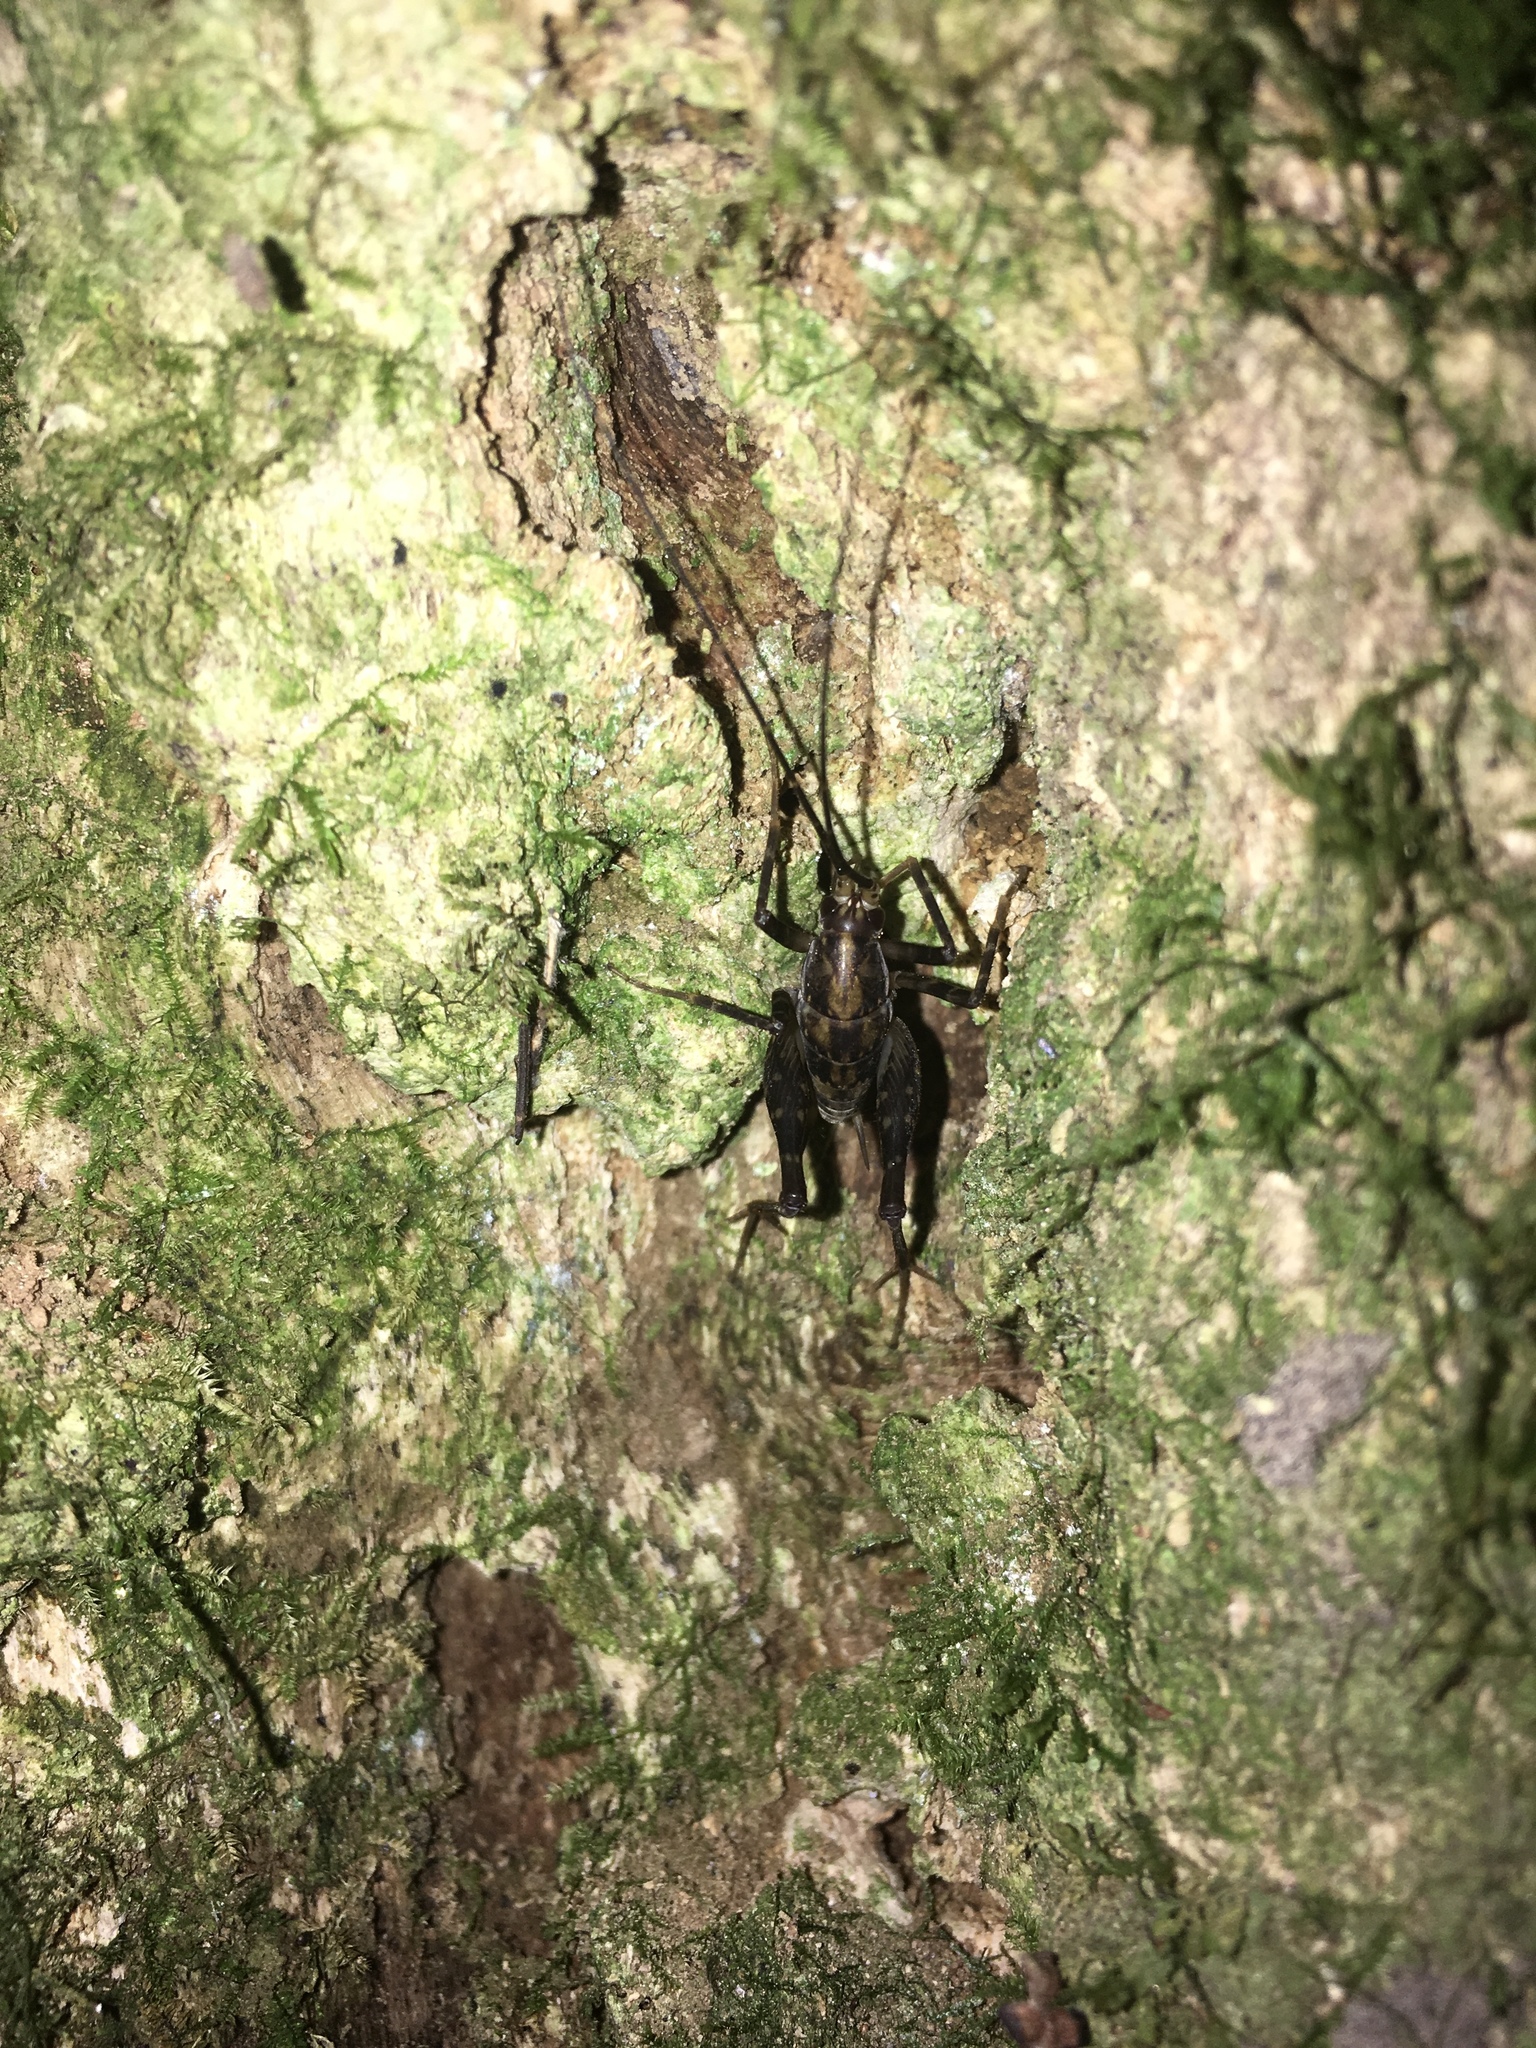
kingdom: Animalia
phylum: Arthropoda
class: Insecta
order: Orthoptera
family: Rhaphidophoridae
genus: Miotopus
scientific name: Miotopus diversus
